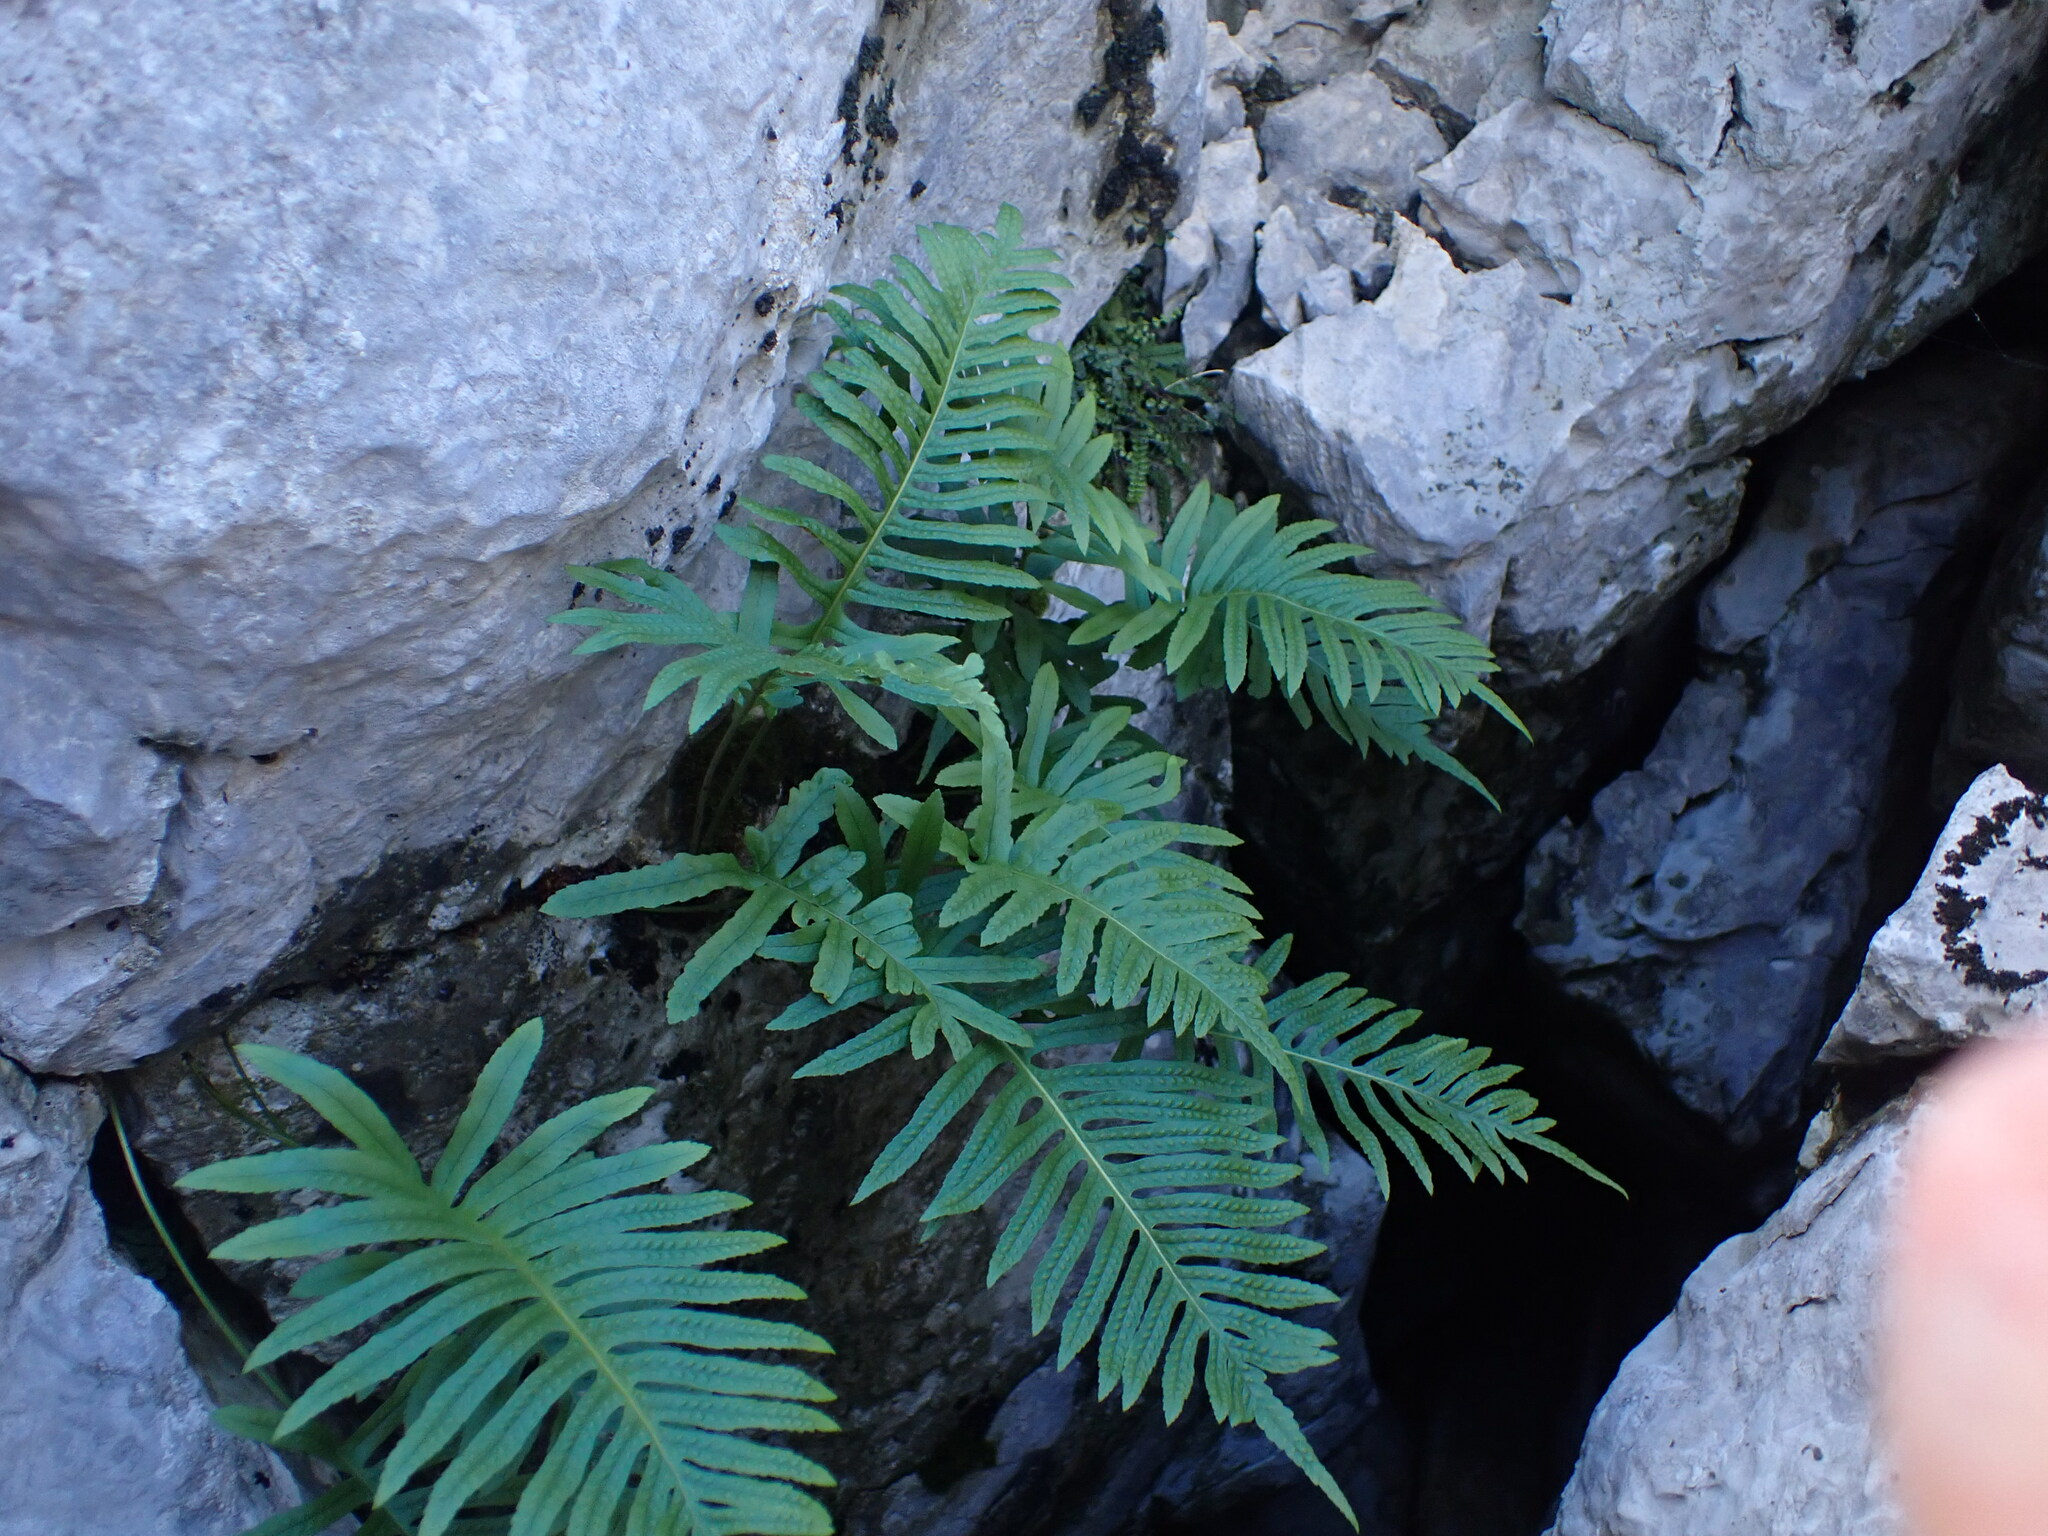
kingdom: Plantae
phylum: Tracheophyta
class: Polypodiopsida
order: Polypodiales
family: Polypodiaceae
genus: Polypodium
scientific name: Polypodium cambricum
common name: Southern polypody
